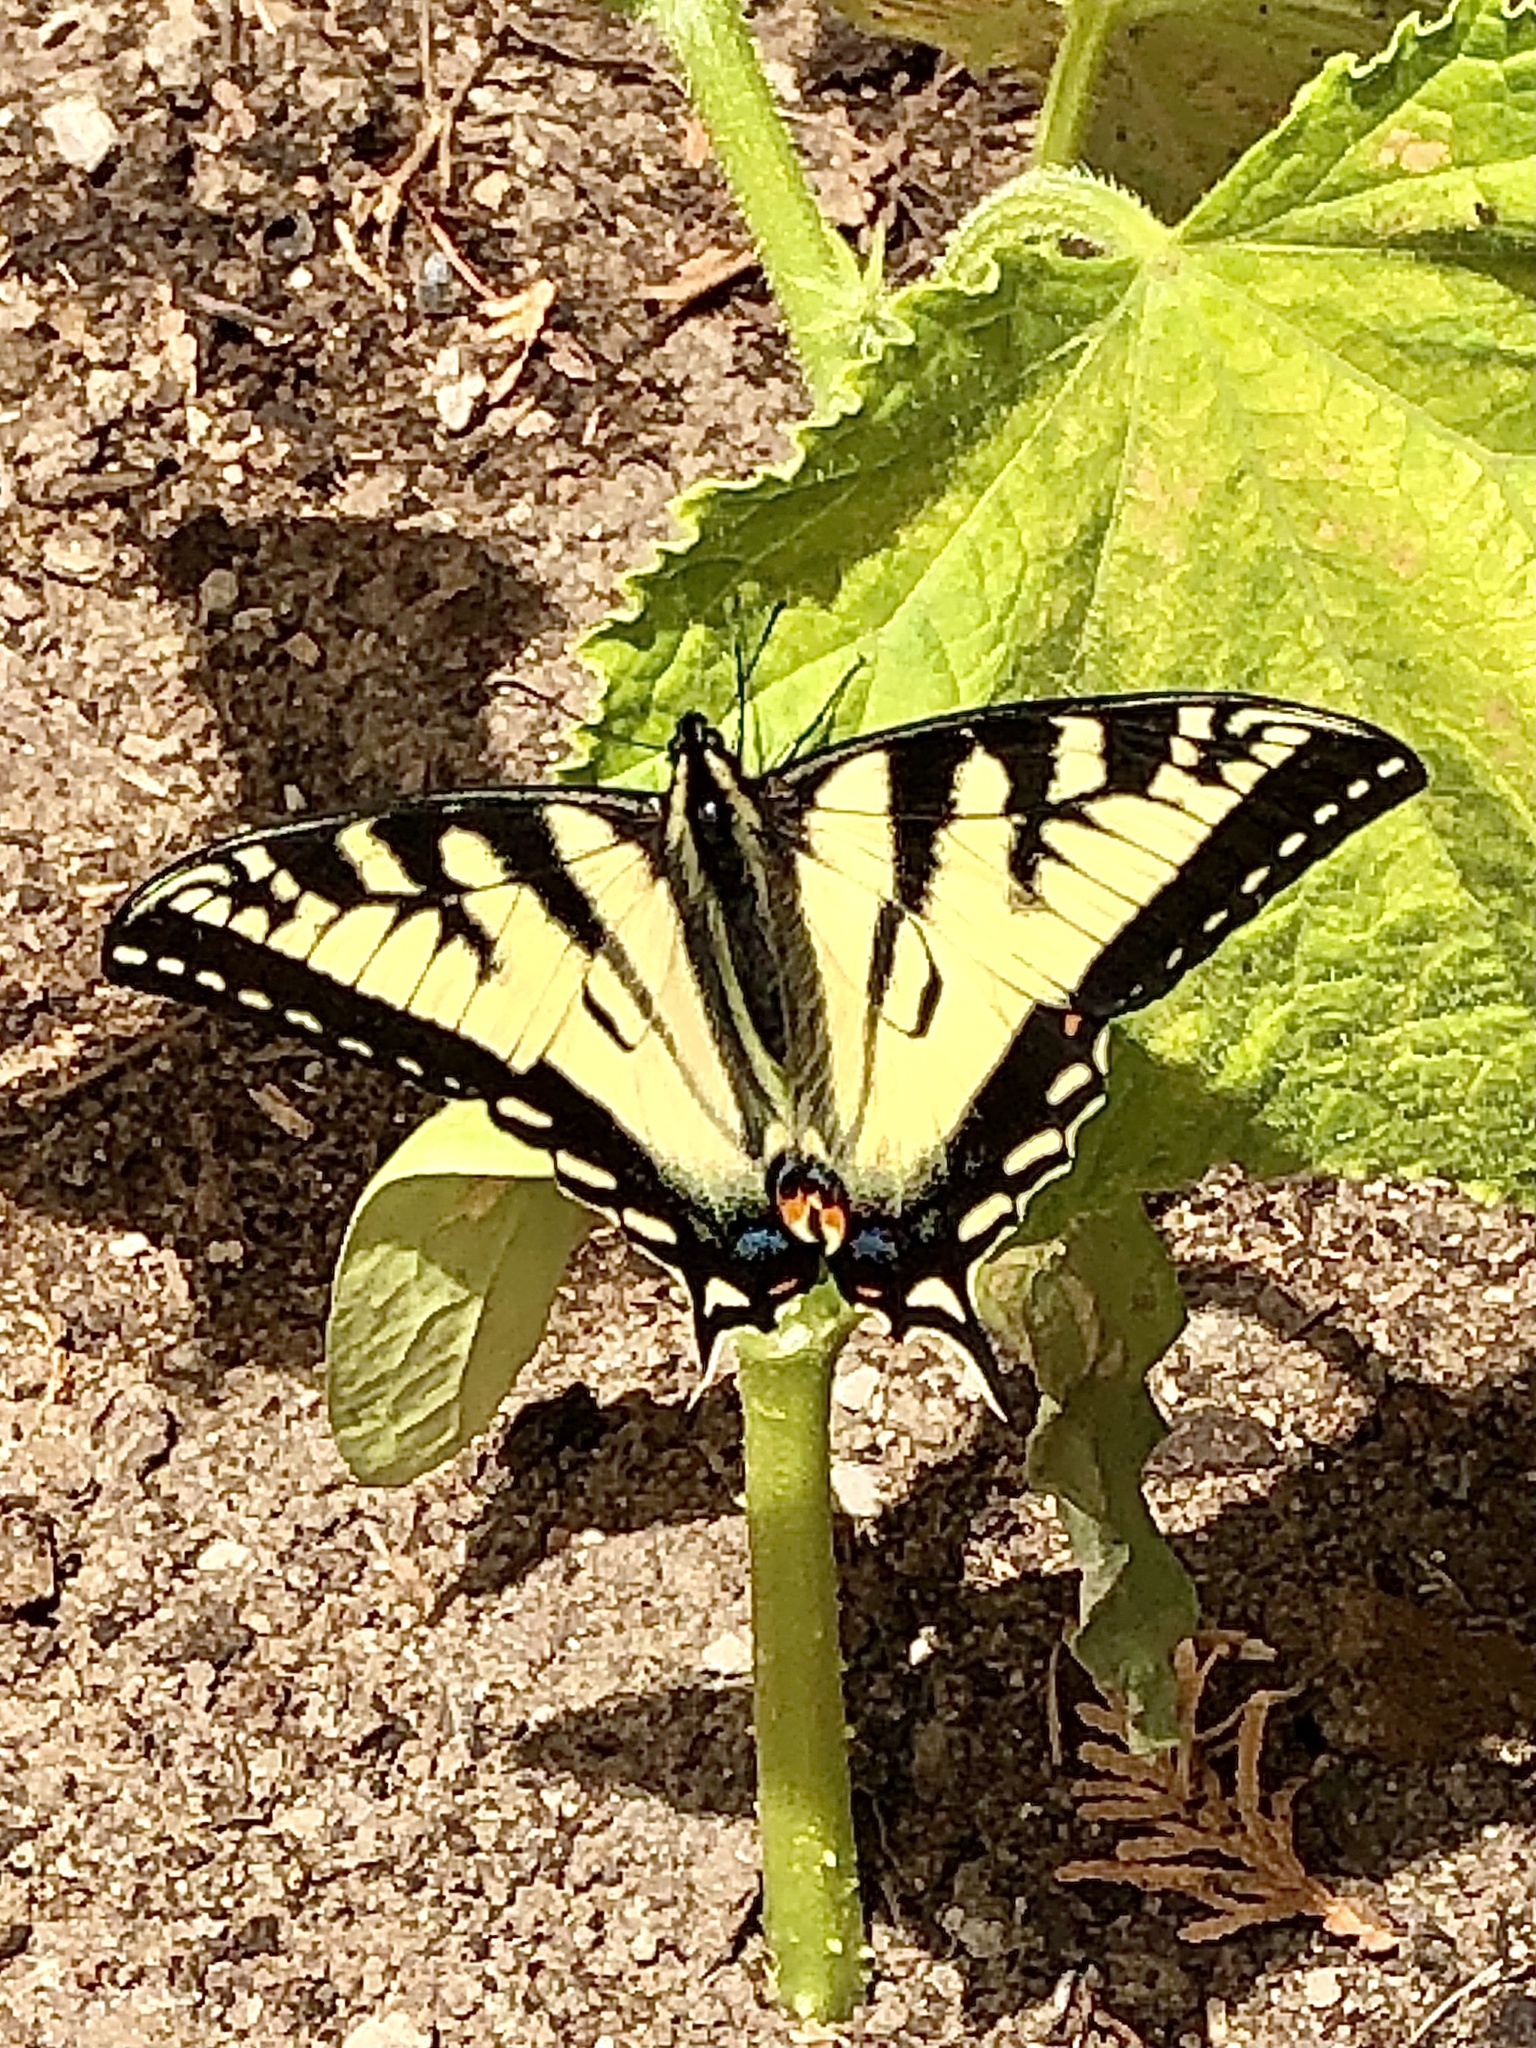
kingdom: Animalia
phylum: Arthropoda
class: Insecta
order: Lepidoptera
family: Papilionidae
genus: Papilio
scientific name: Papilio canadensis
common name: Canadian tiger swallowtail
